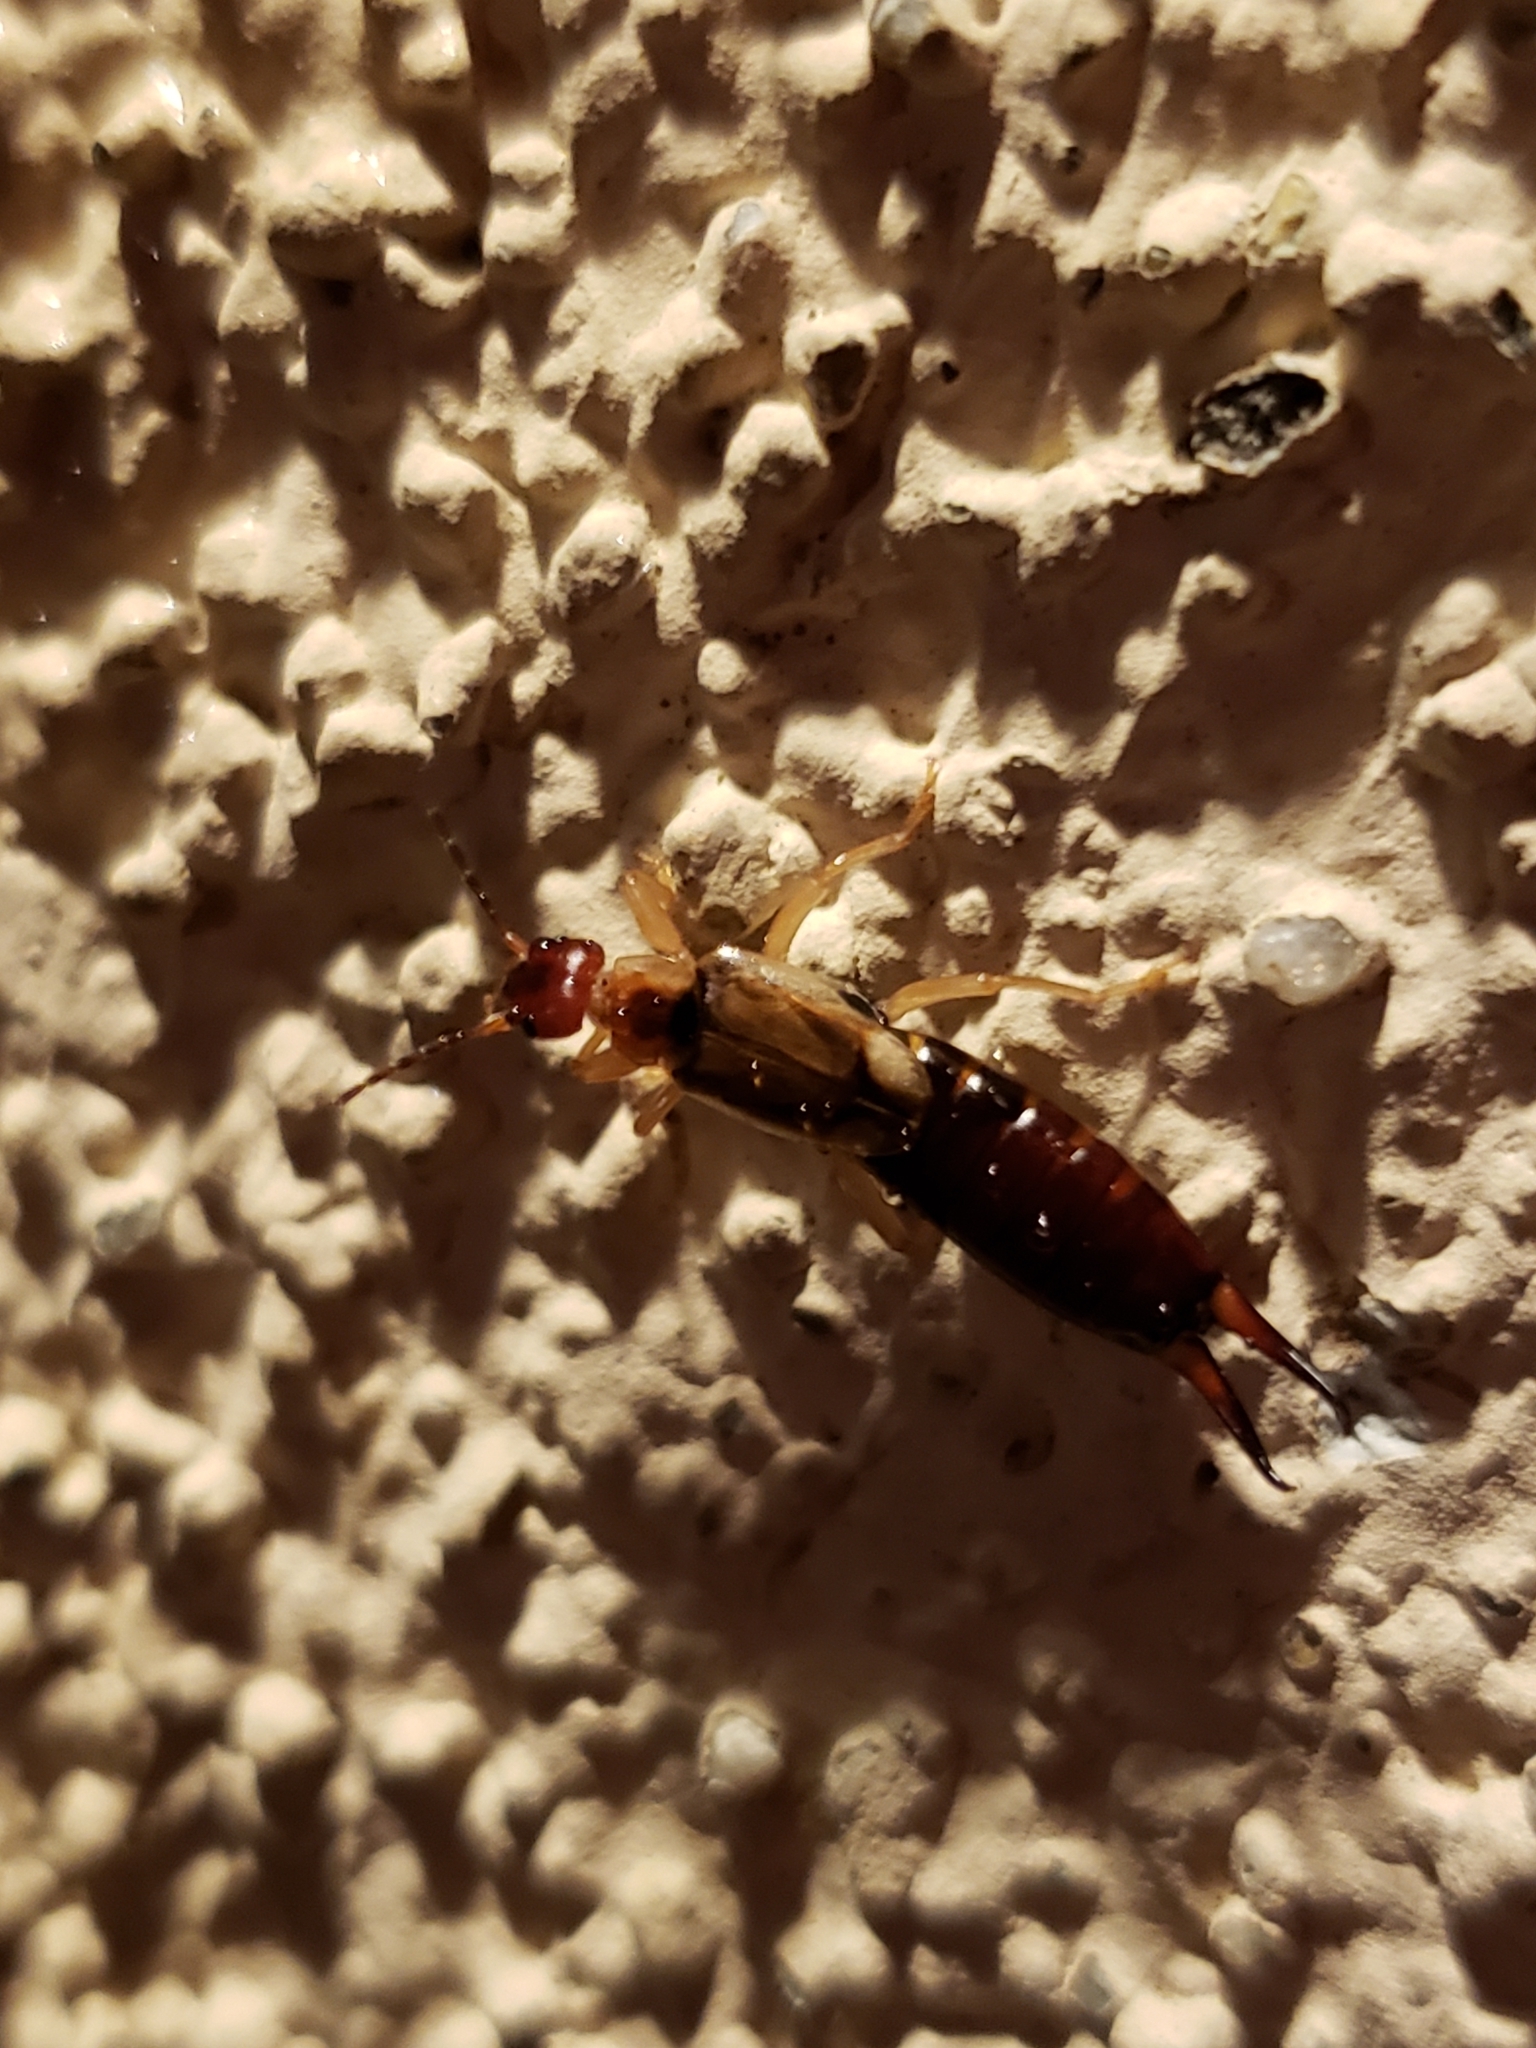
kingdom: Animalia
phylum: Arthropoda
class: Insecta
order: Dermaptera
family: Forficulidae
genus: Forficula
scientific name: Forficula
